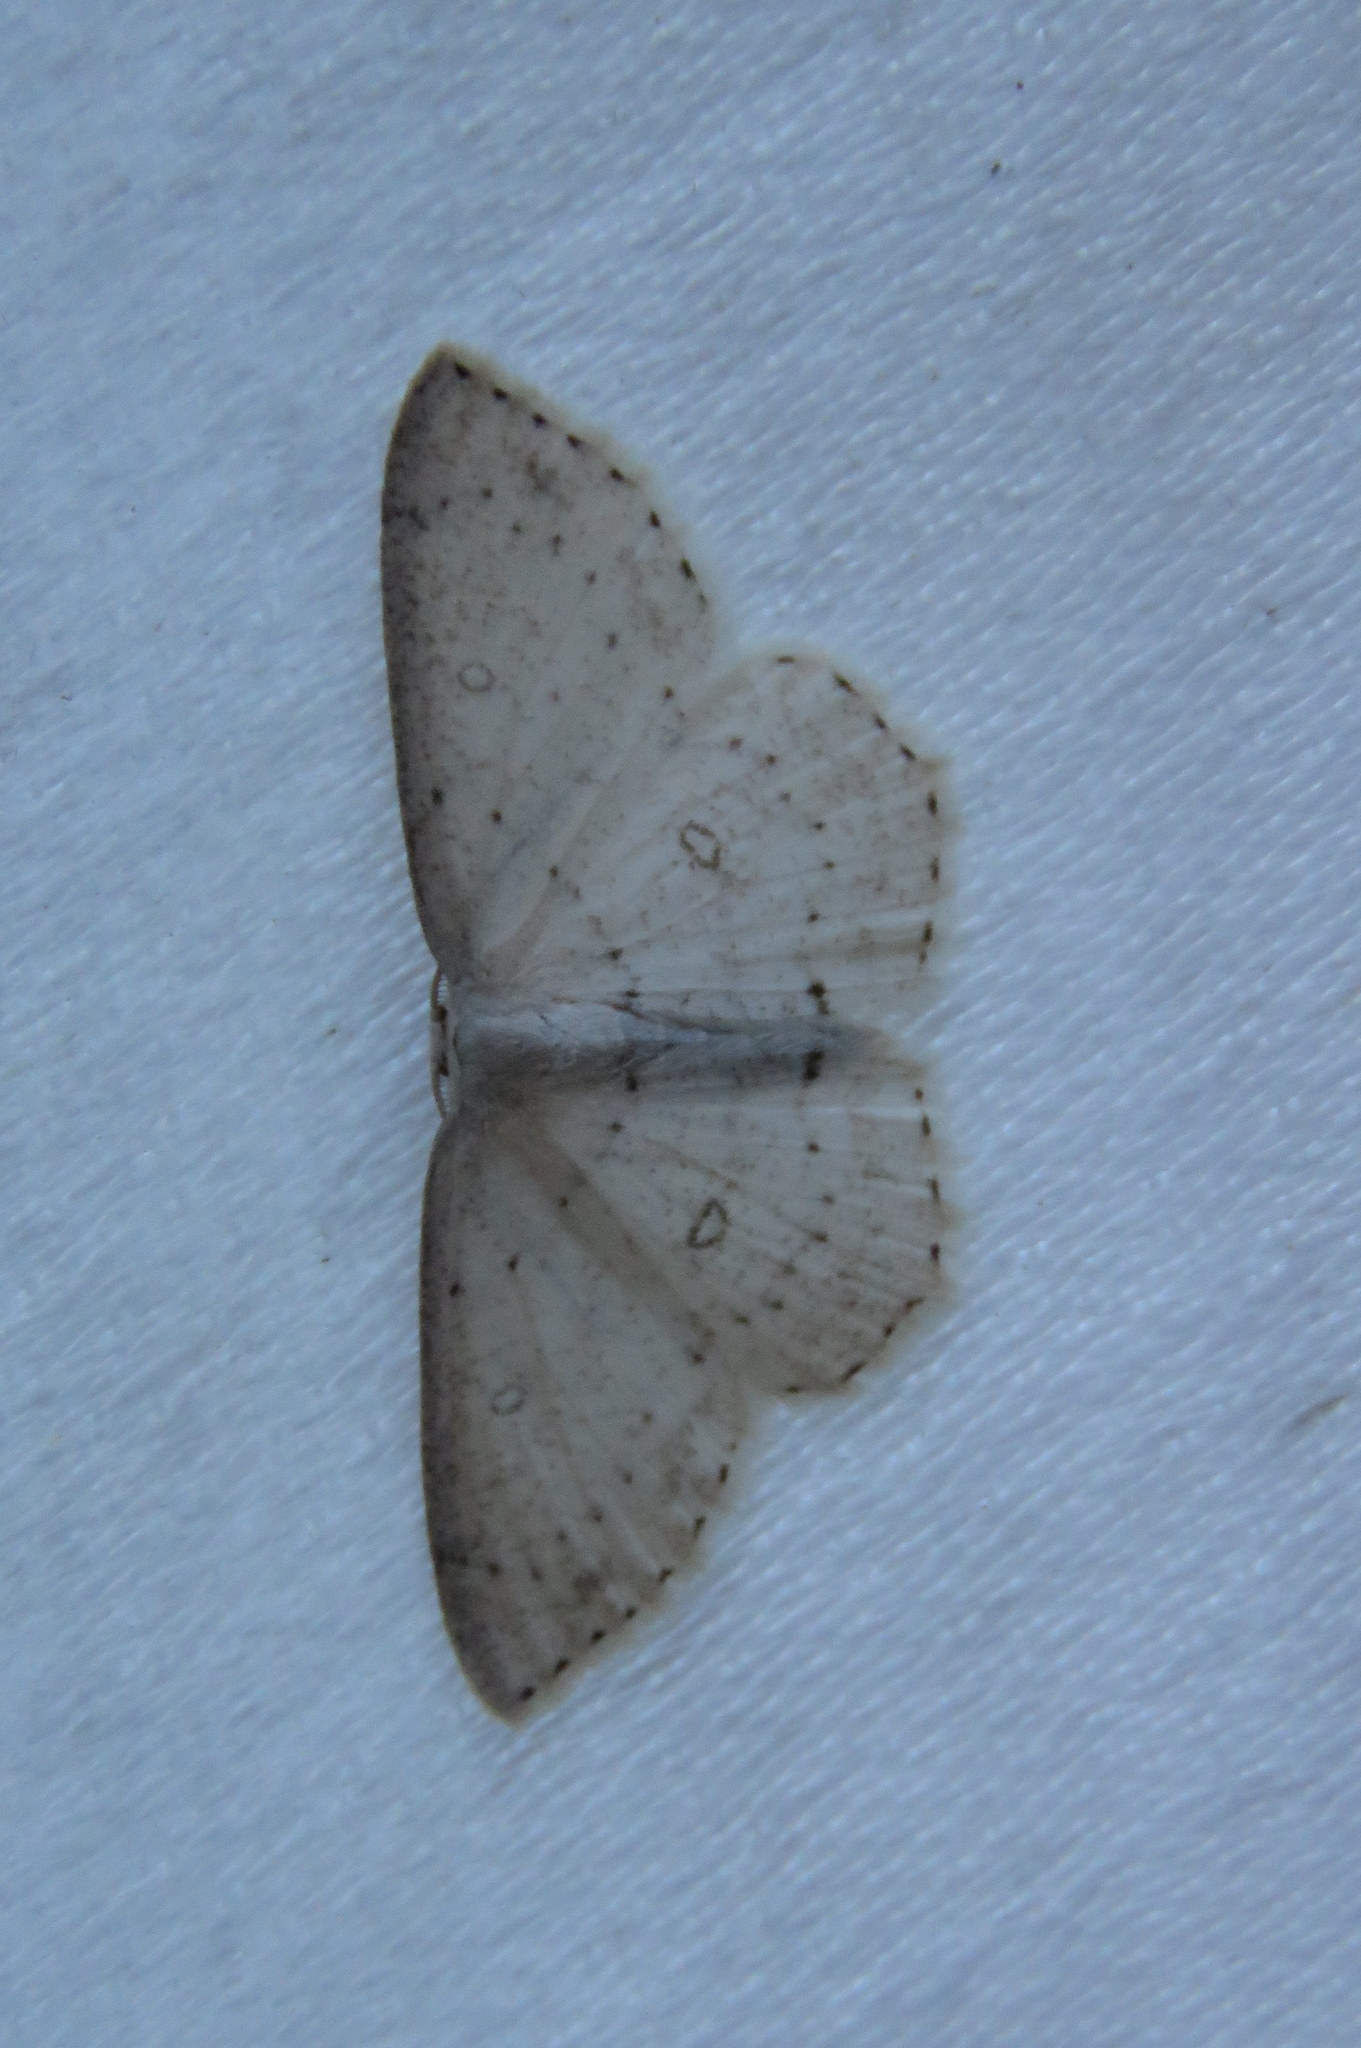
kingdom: Animalia
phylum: Arthropoda
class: Insecta
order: Lepidoptera
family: Geometridae
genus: Cyclophora
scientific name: Cyclophora pendulinaria
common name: Sweet fern geometer
